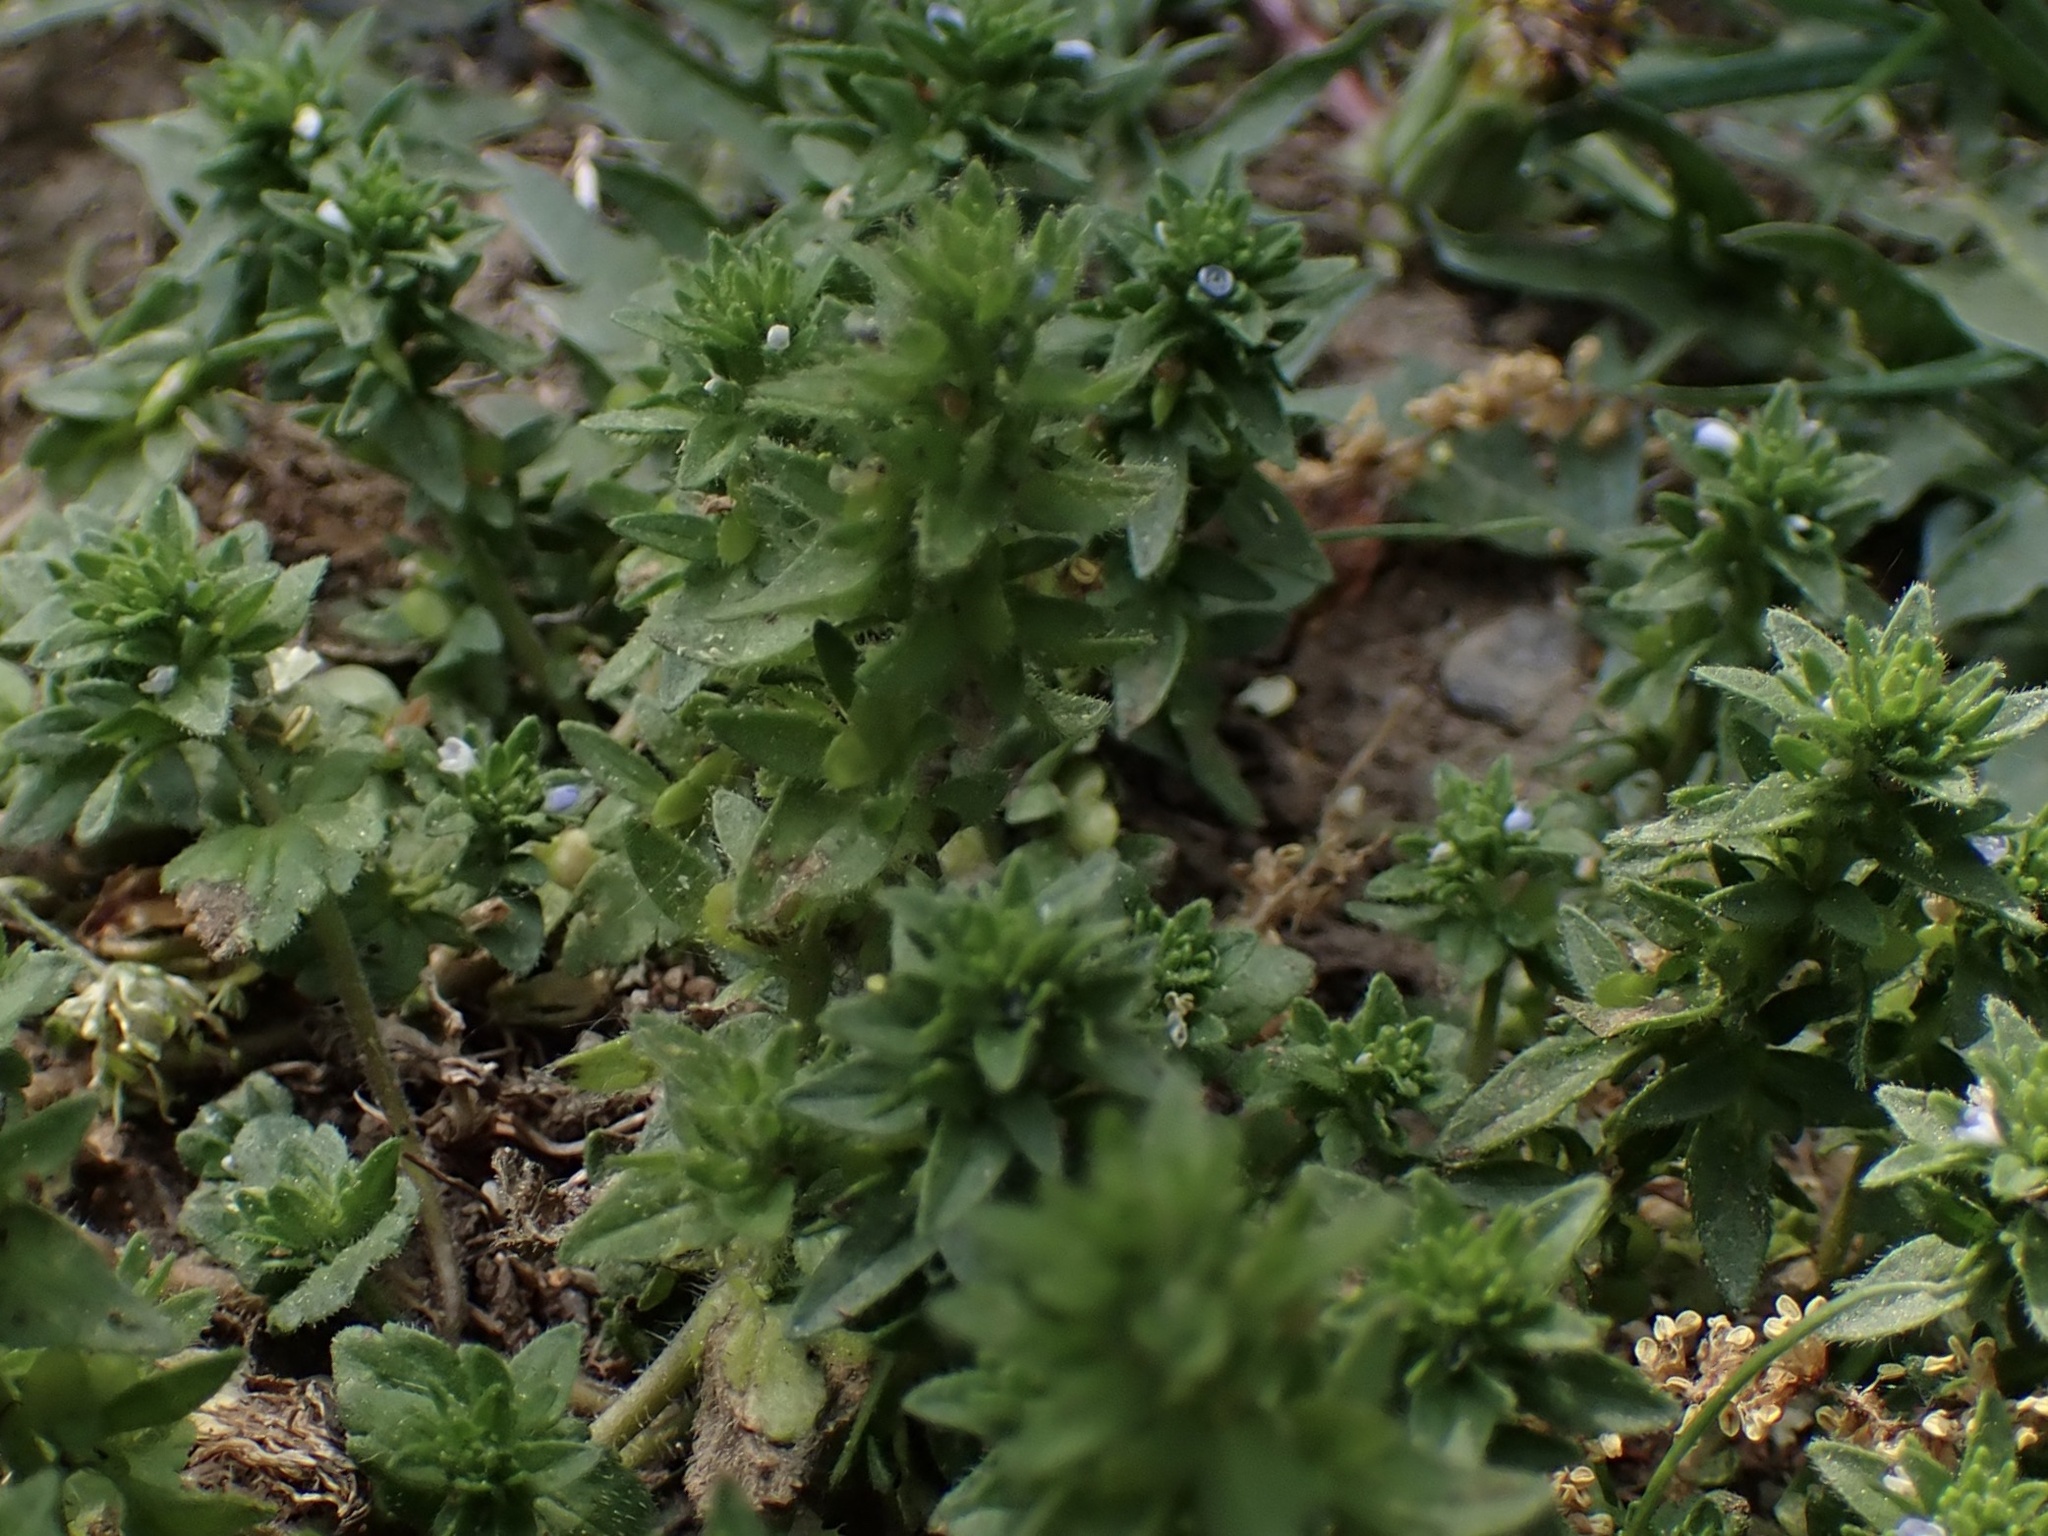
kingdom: Plantae
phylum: Tracheophyta
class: Magnoliopsida
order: Lamiales
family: Plantaginaceae
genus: Veronica
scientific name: Veronica arvensis
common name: Corn speedwell
